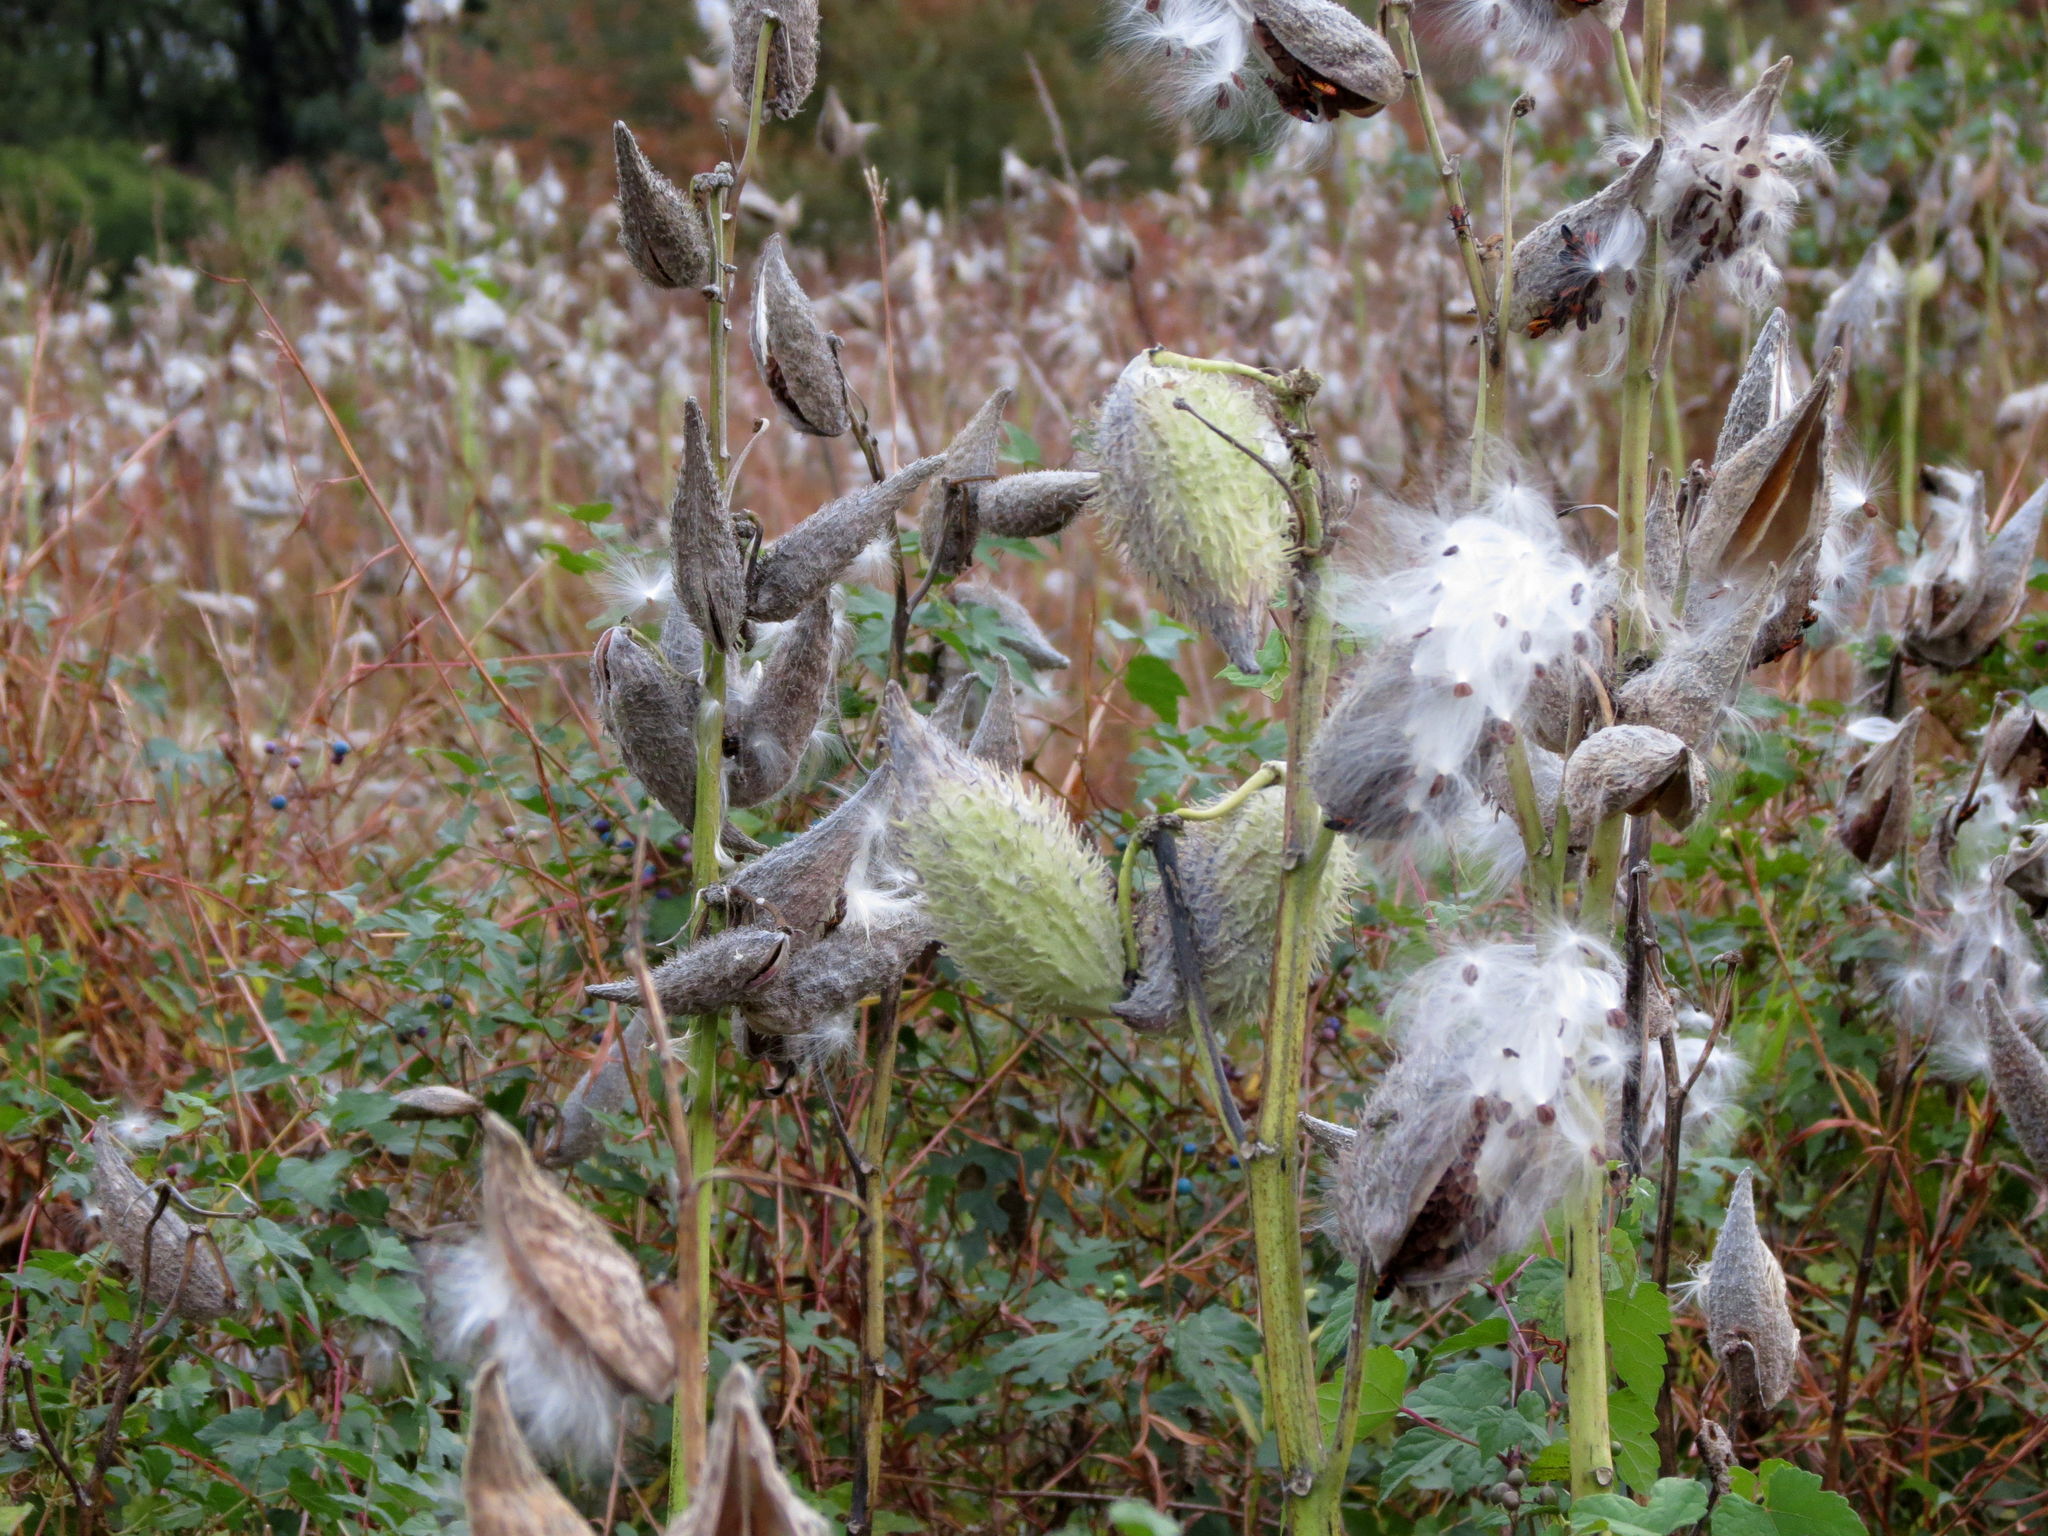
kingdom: Plantae
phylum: Tracheophyta
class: Magnoliopsida
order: Gentianales
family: Apocynaceae
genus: Asclepias
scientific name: Asclepias syriaca
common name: Common milkweed
